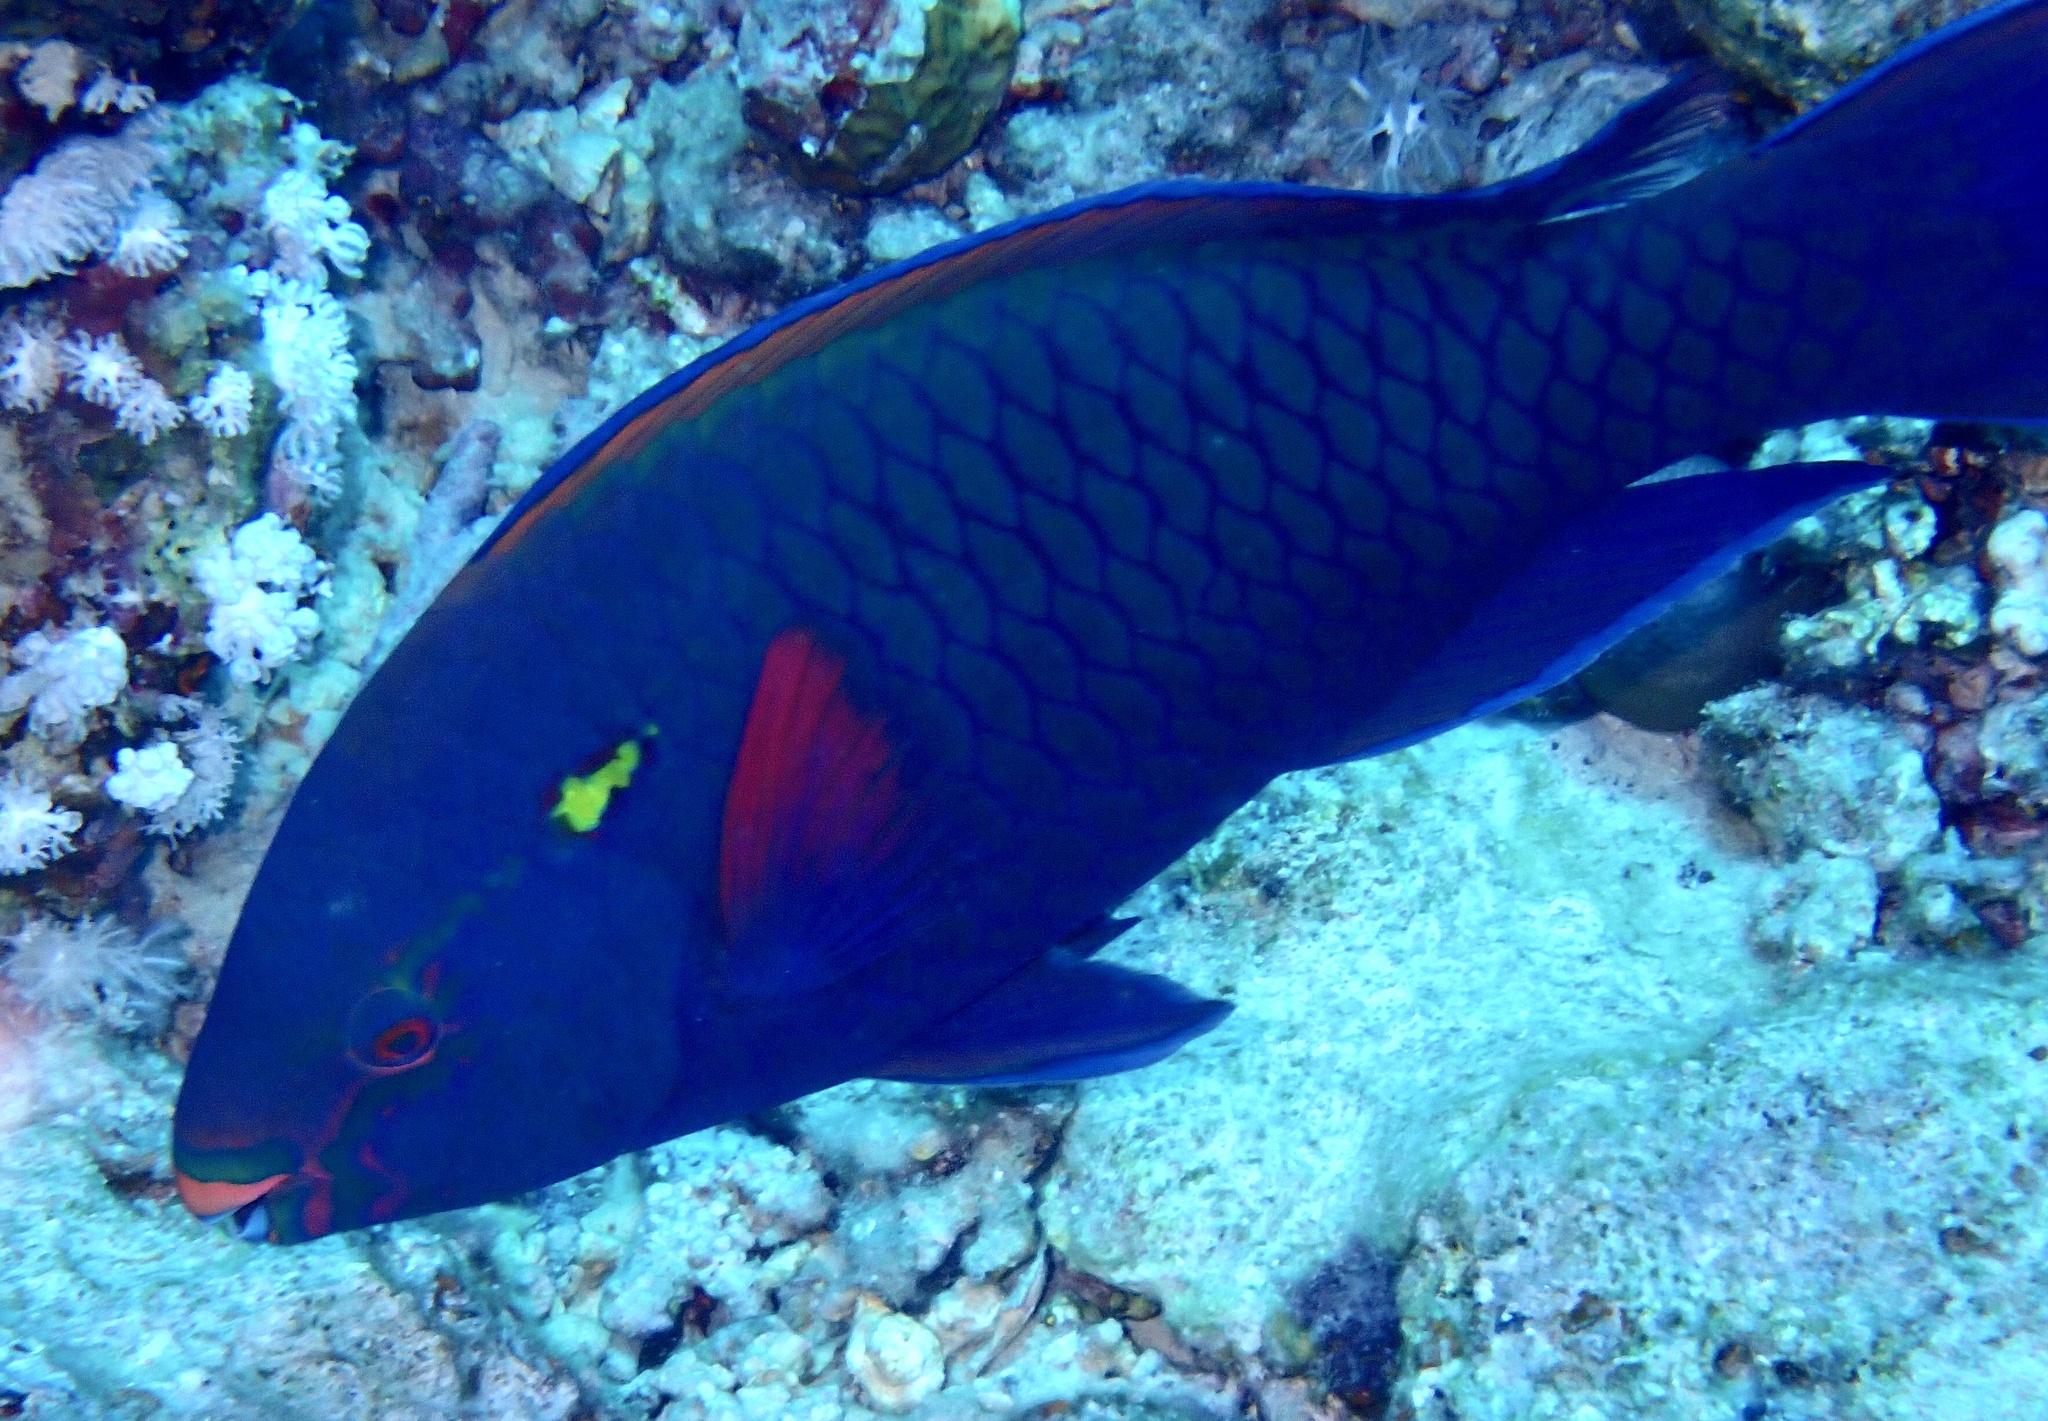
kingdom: Animalia
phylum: Chordata
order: Perciformes
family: Scaridae
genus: Scarus
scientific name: Scarus niger
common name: Dusky parrotfish
